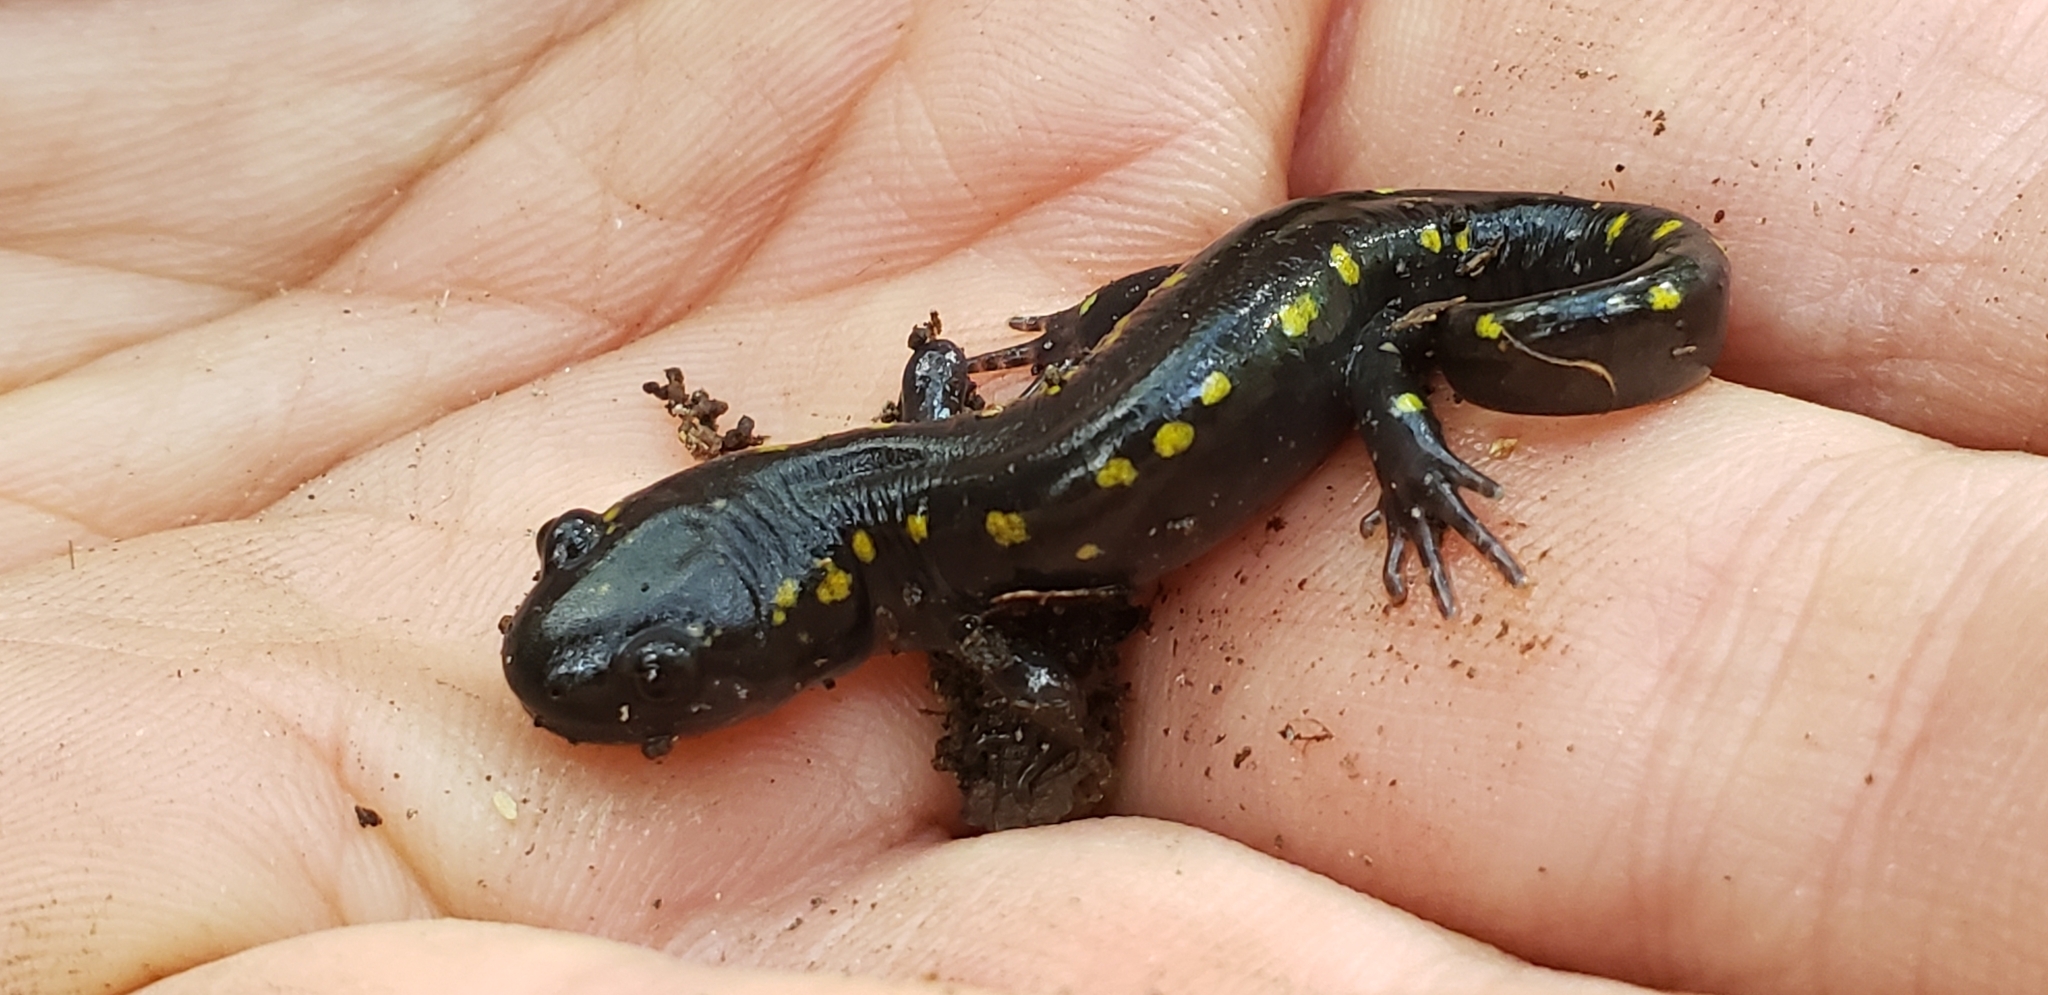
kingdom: Animalia
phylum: Chordata
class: Amphibia
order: Caudata
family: Ambystomatidae
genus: Ambystoma
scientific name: Ambystoma maculatum
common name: Spotted salamander
